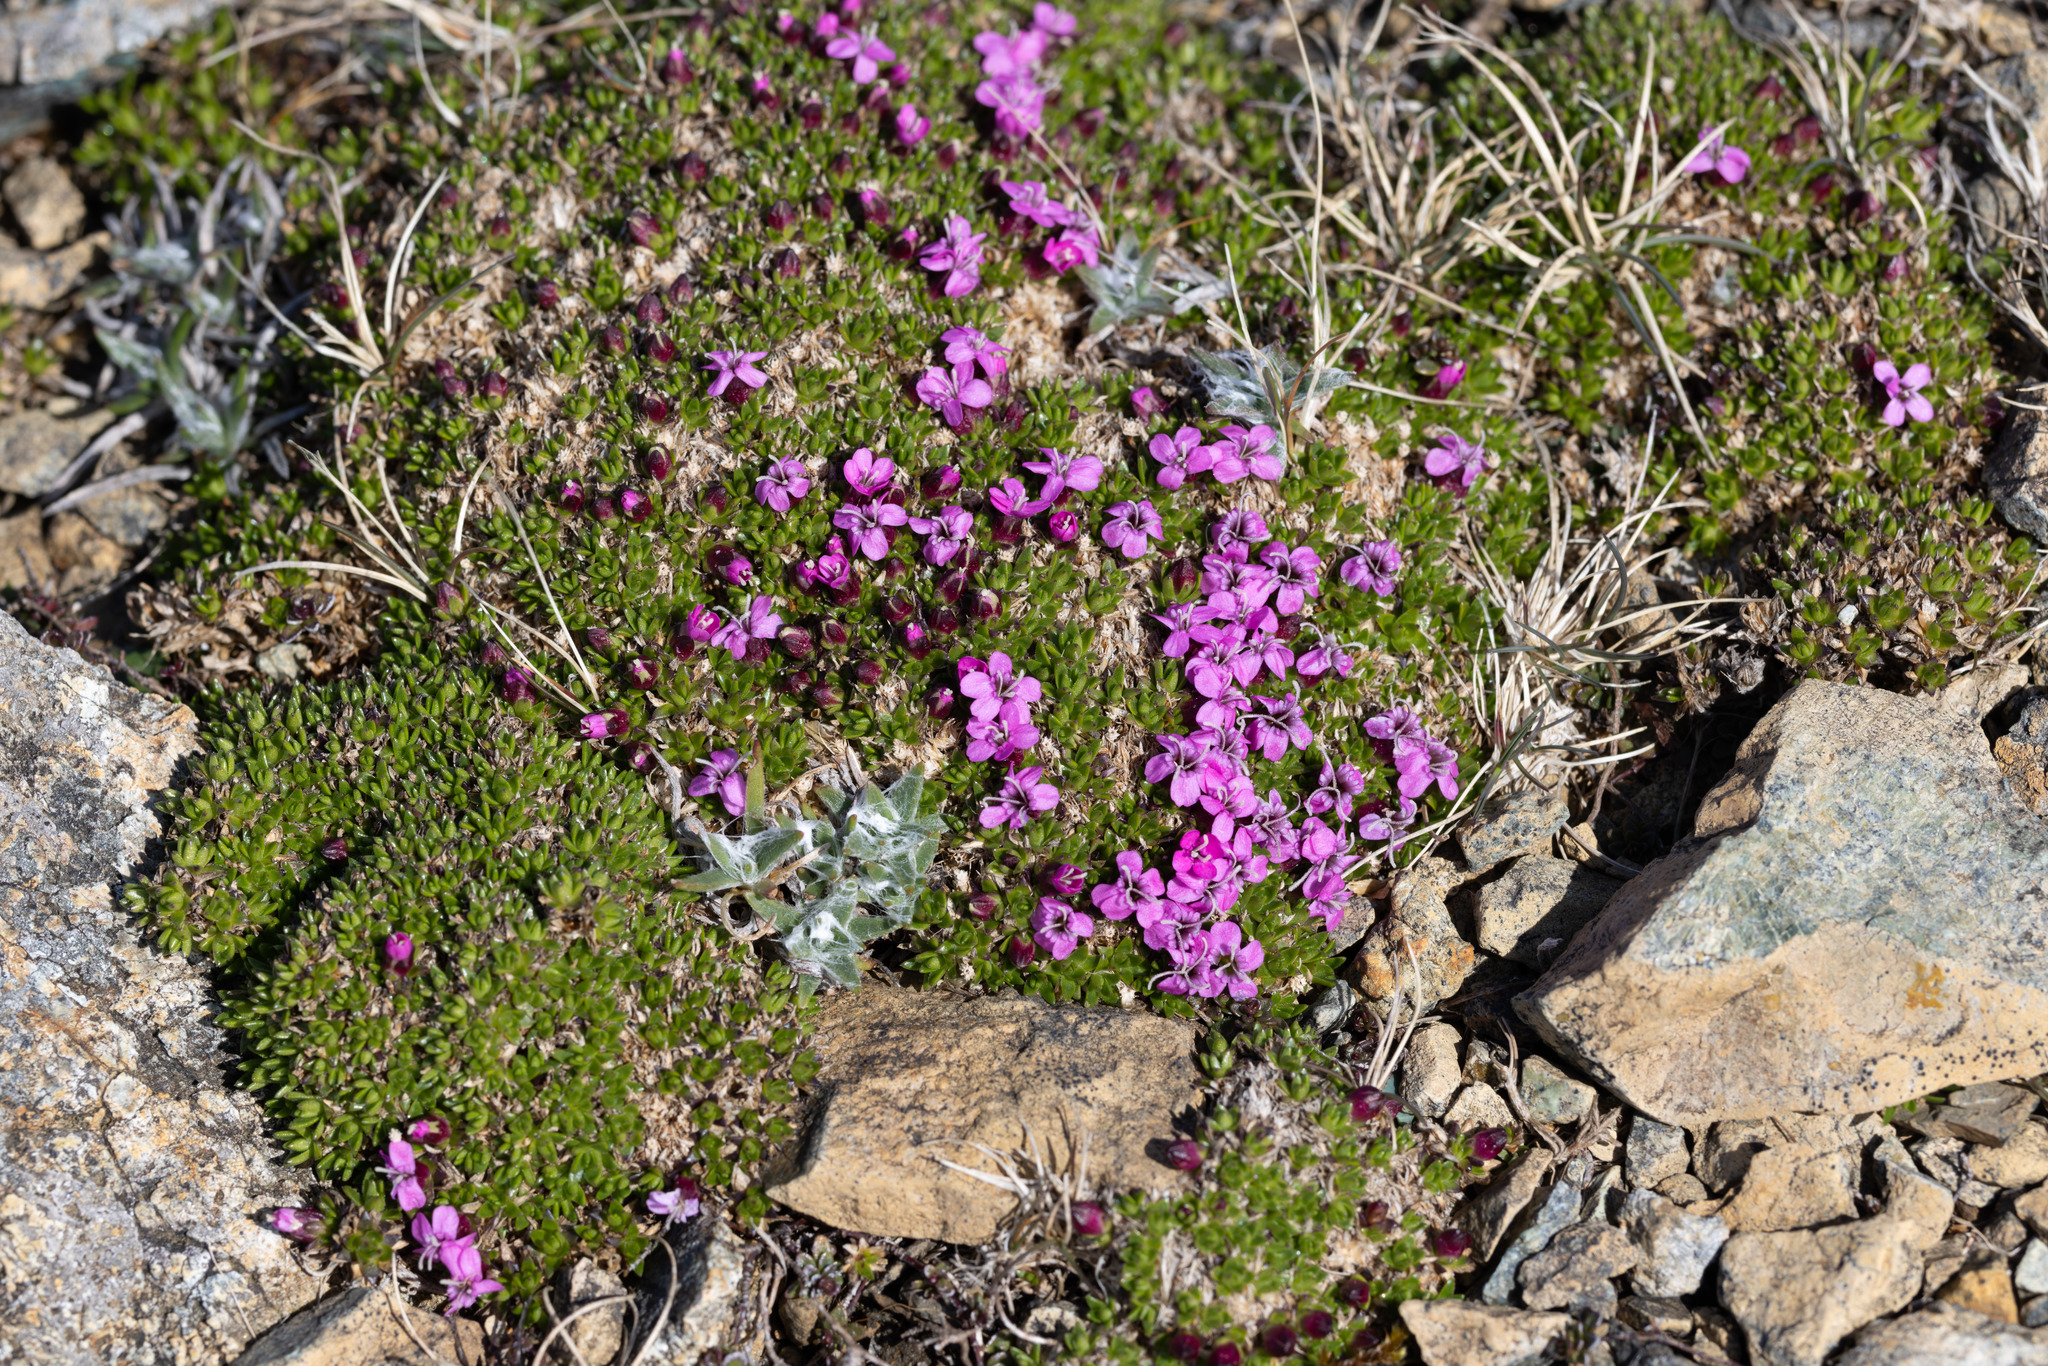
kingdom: Plantae
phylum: Tracheophyta
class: Magnoliopsida
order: Caryophyllales
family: Caryophyllaceae
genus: Silene
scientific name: Silene acaulis
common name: Moss campion
